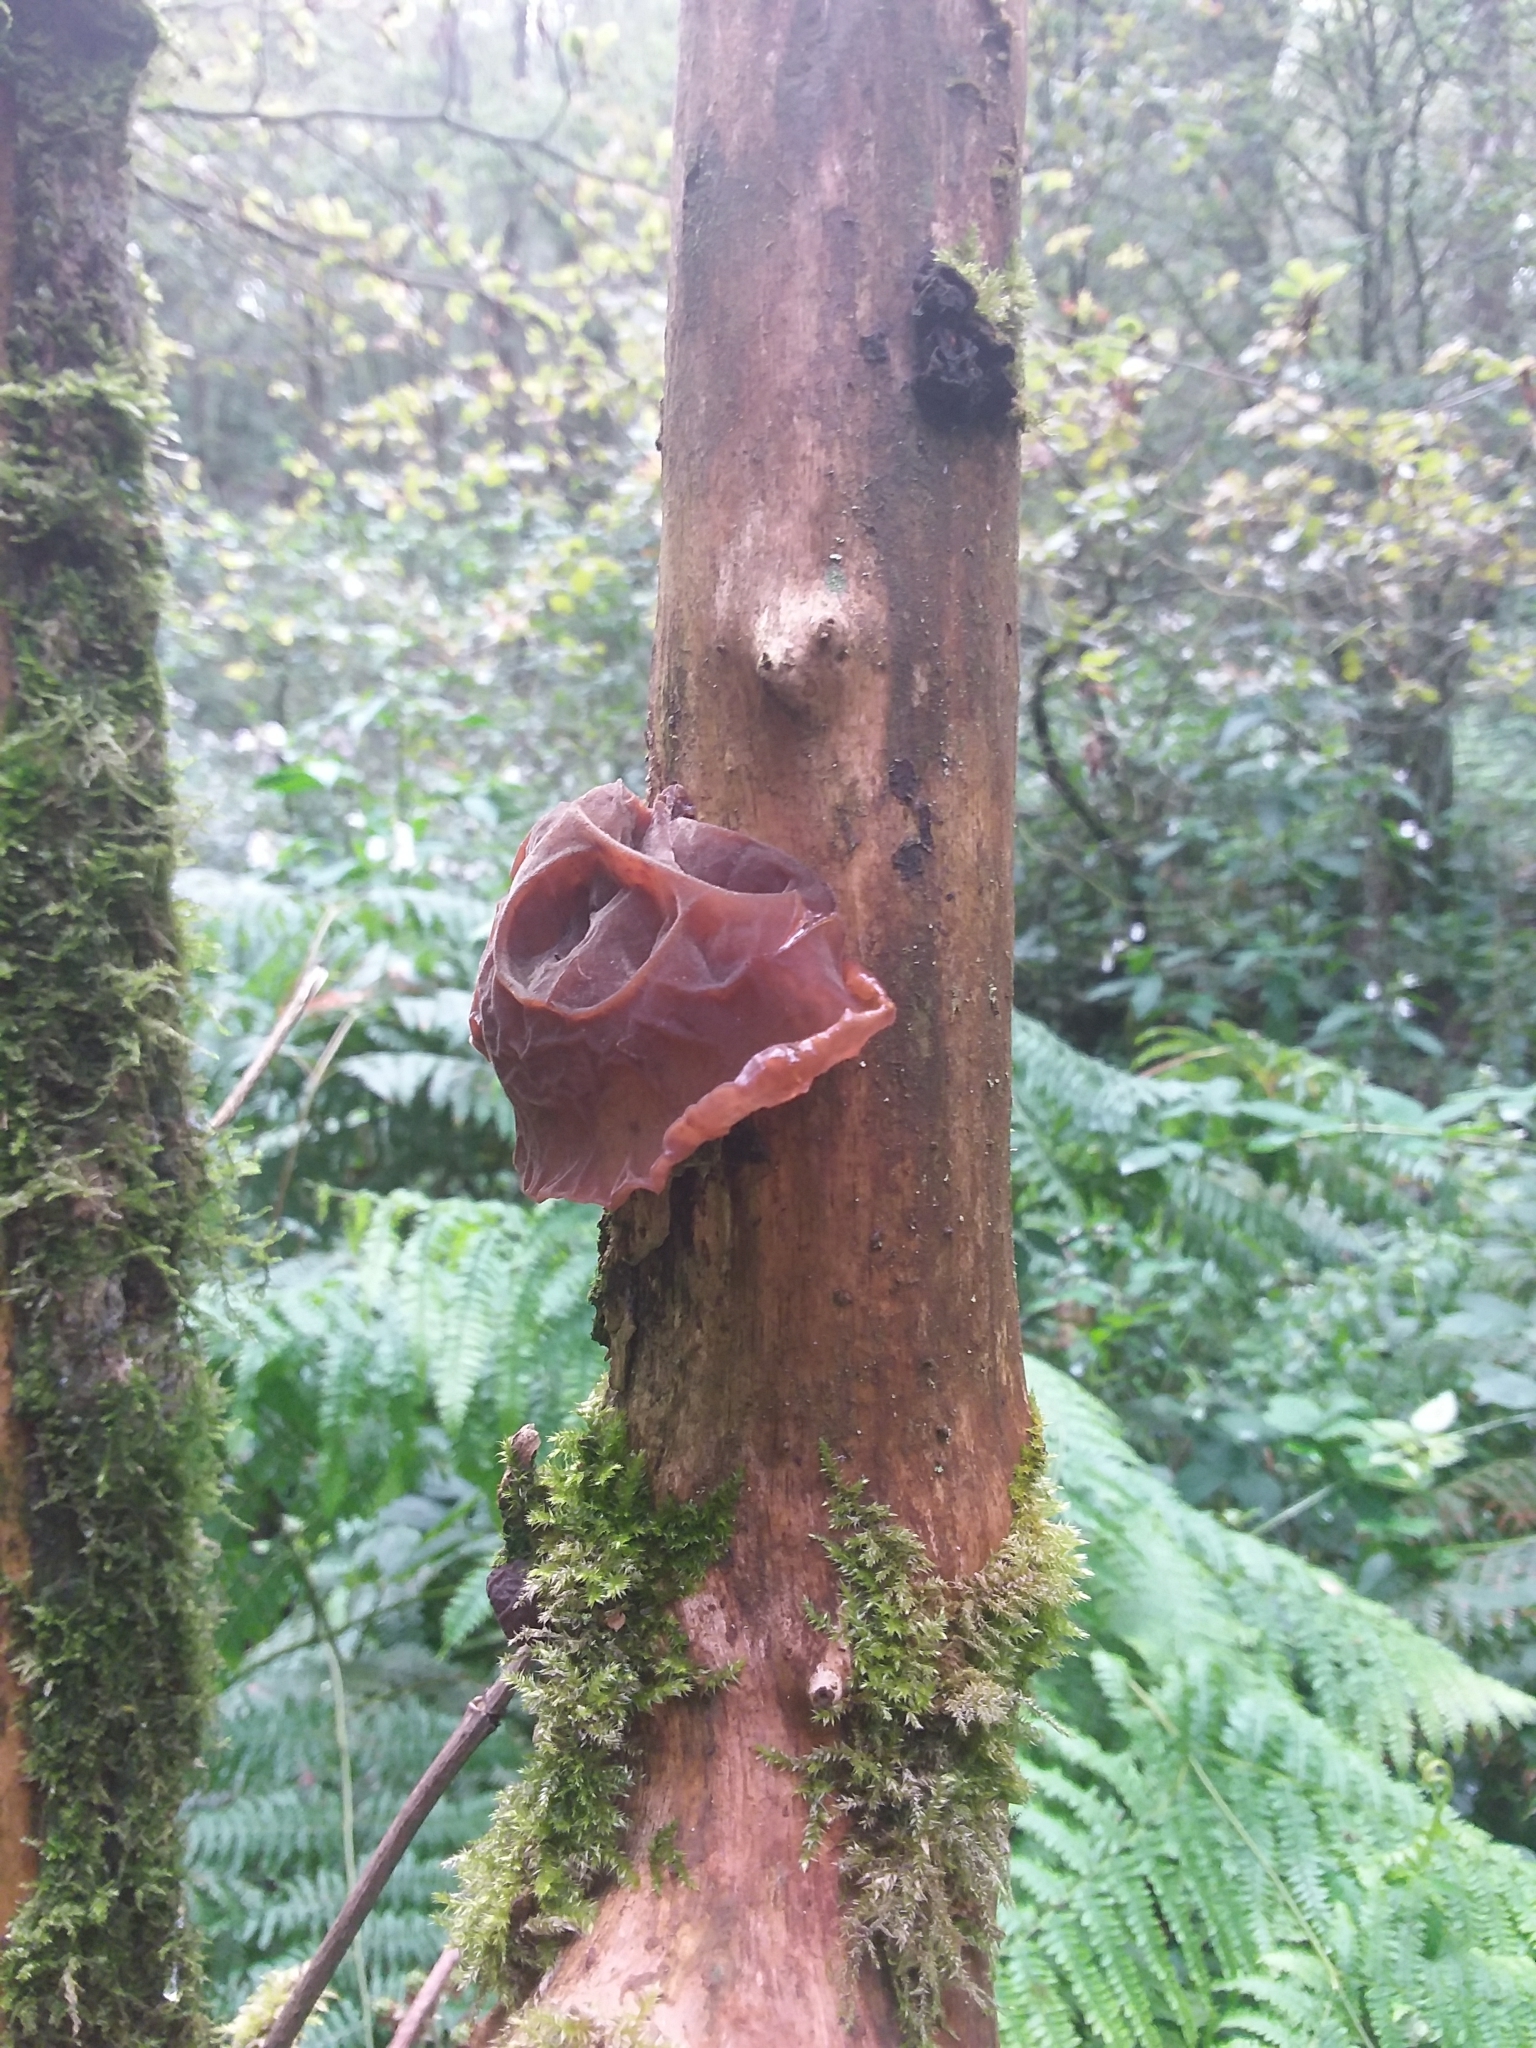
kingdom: Fungi
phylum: Basidiomycota
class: Agaricomycetes
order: Auriculariales
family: Auriculariaceae
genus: Auricularia
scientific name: Auricularia auricula-judae
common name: Jelly ear
